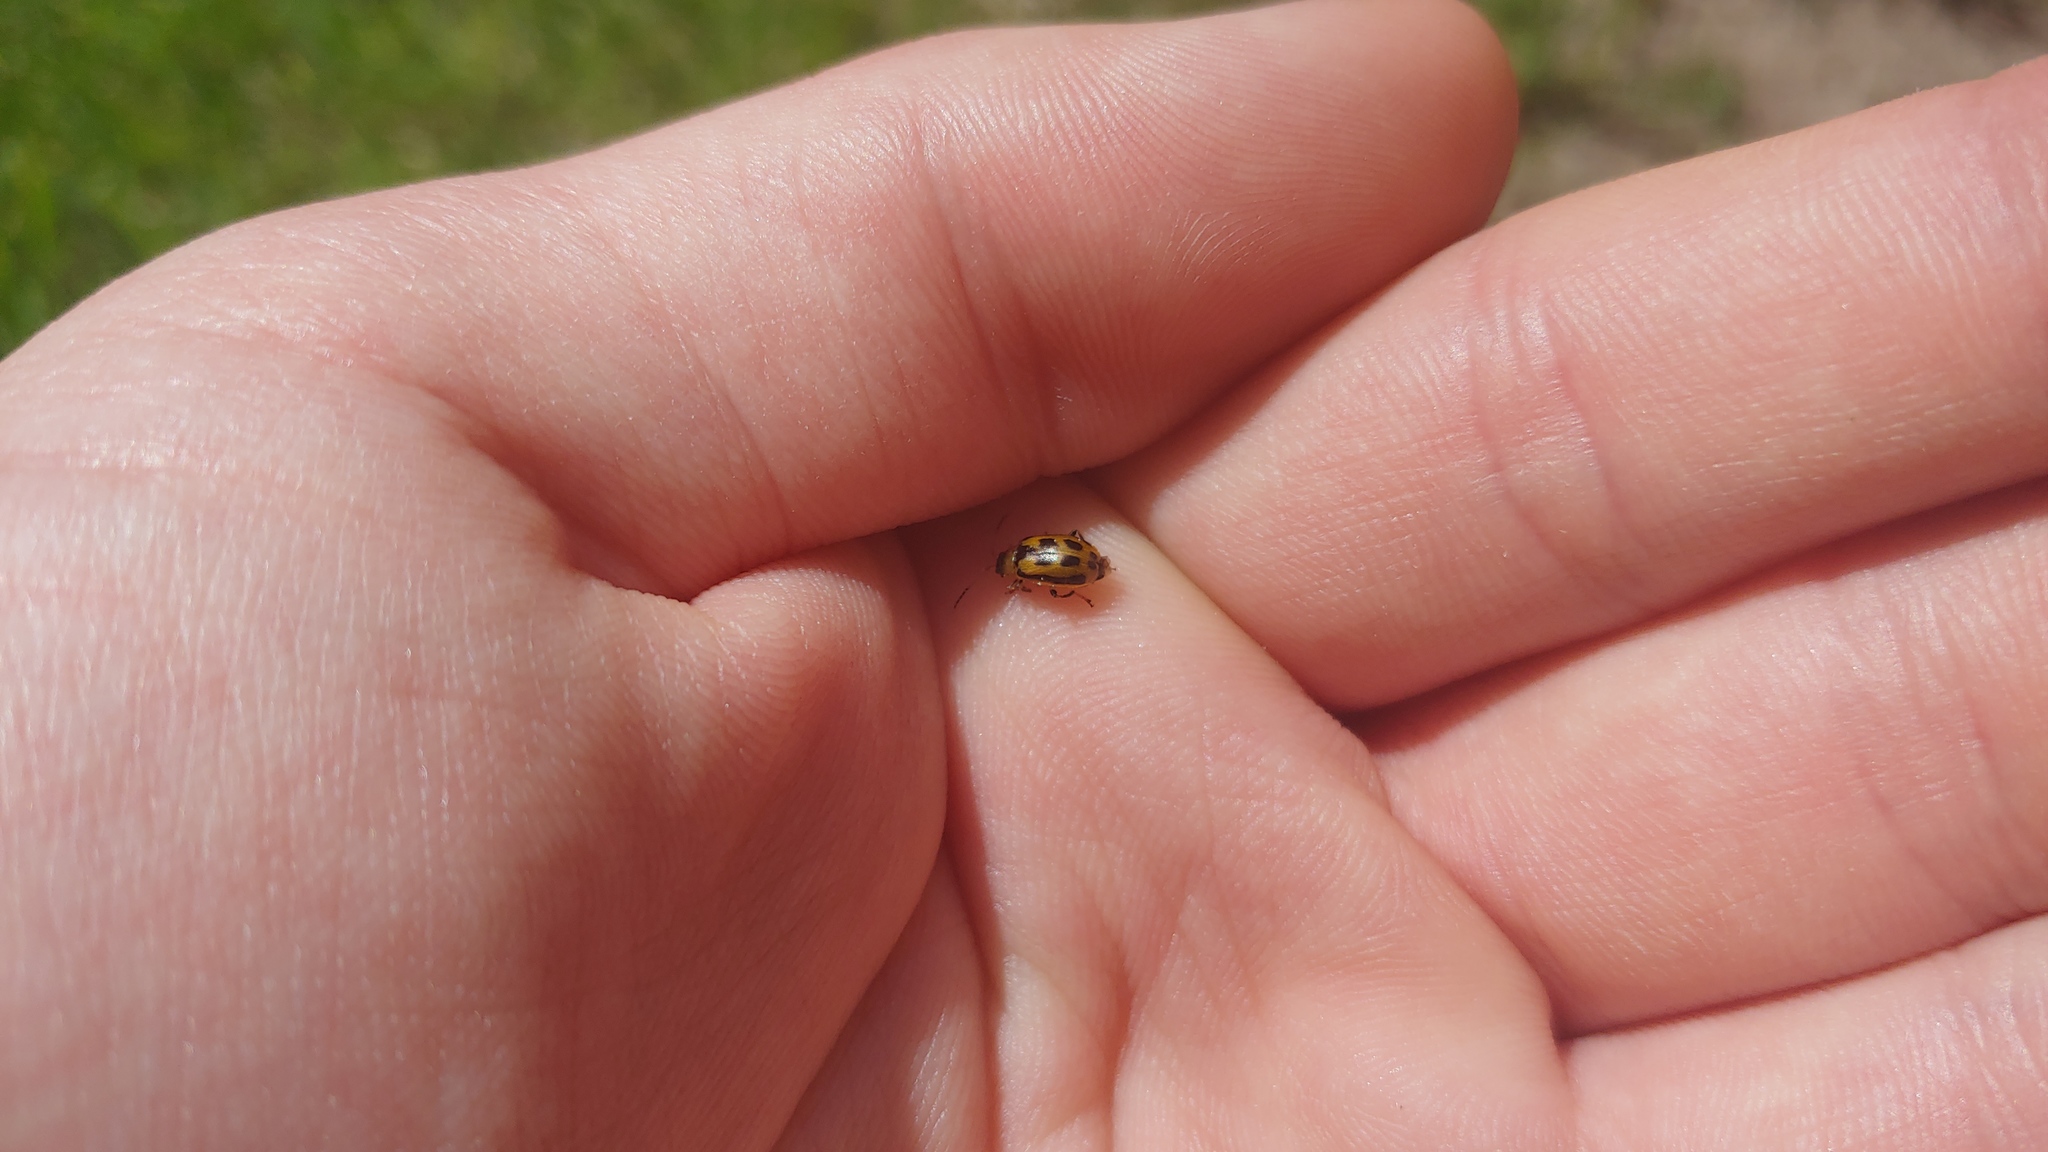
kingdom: Animalia
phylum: Arthropoda
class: Insecta
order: Coleoptera
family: Chrysomelidae
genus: Cerotoma
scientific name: Cerotoma trifurcata
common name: Bean leaf beetle
